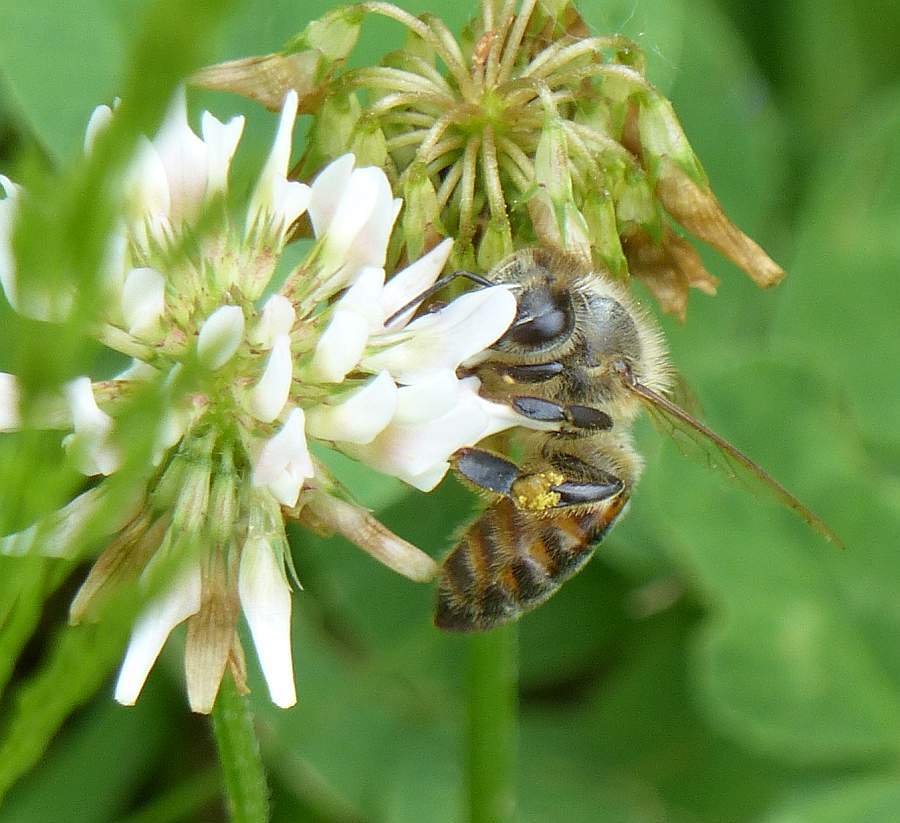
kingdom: Animalia
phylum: Arthropoda
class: Insecta
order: Hymenoptera
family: Apidae
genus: Apis
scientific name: Apis mellifera
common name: Honey bee
